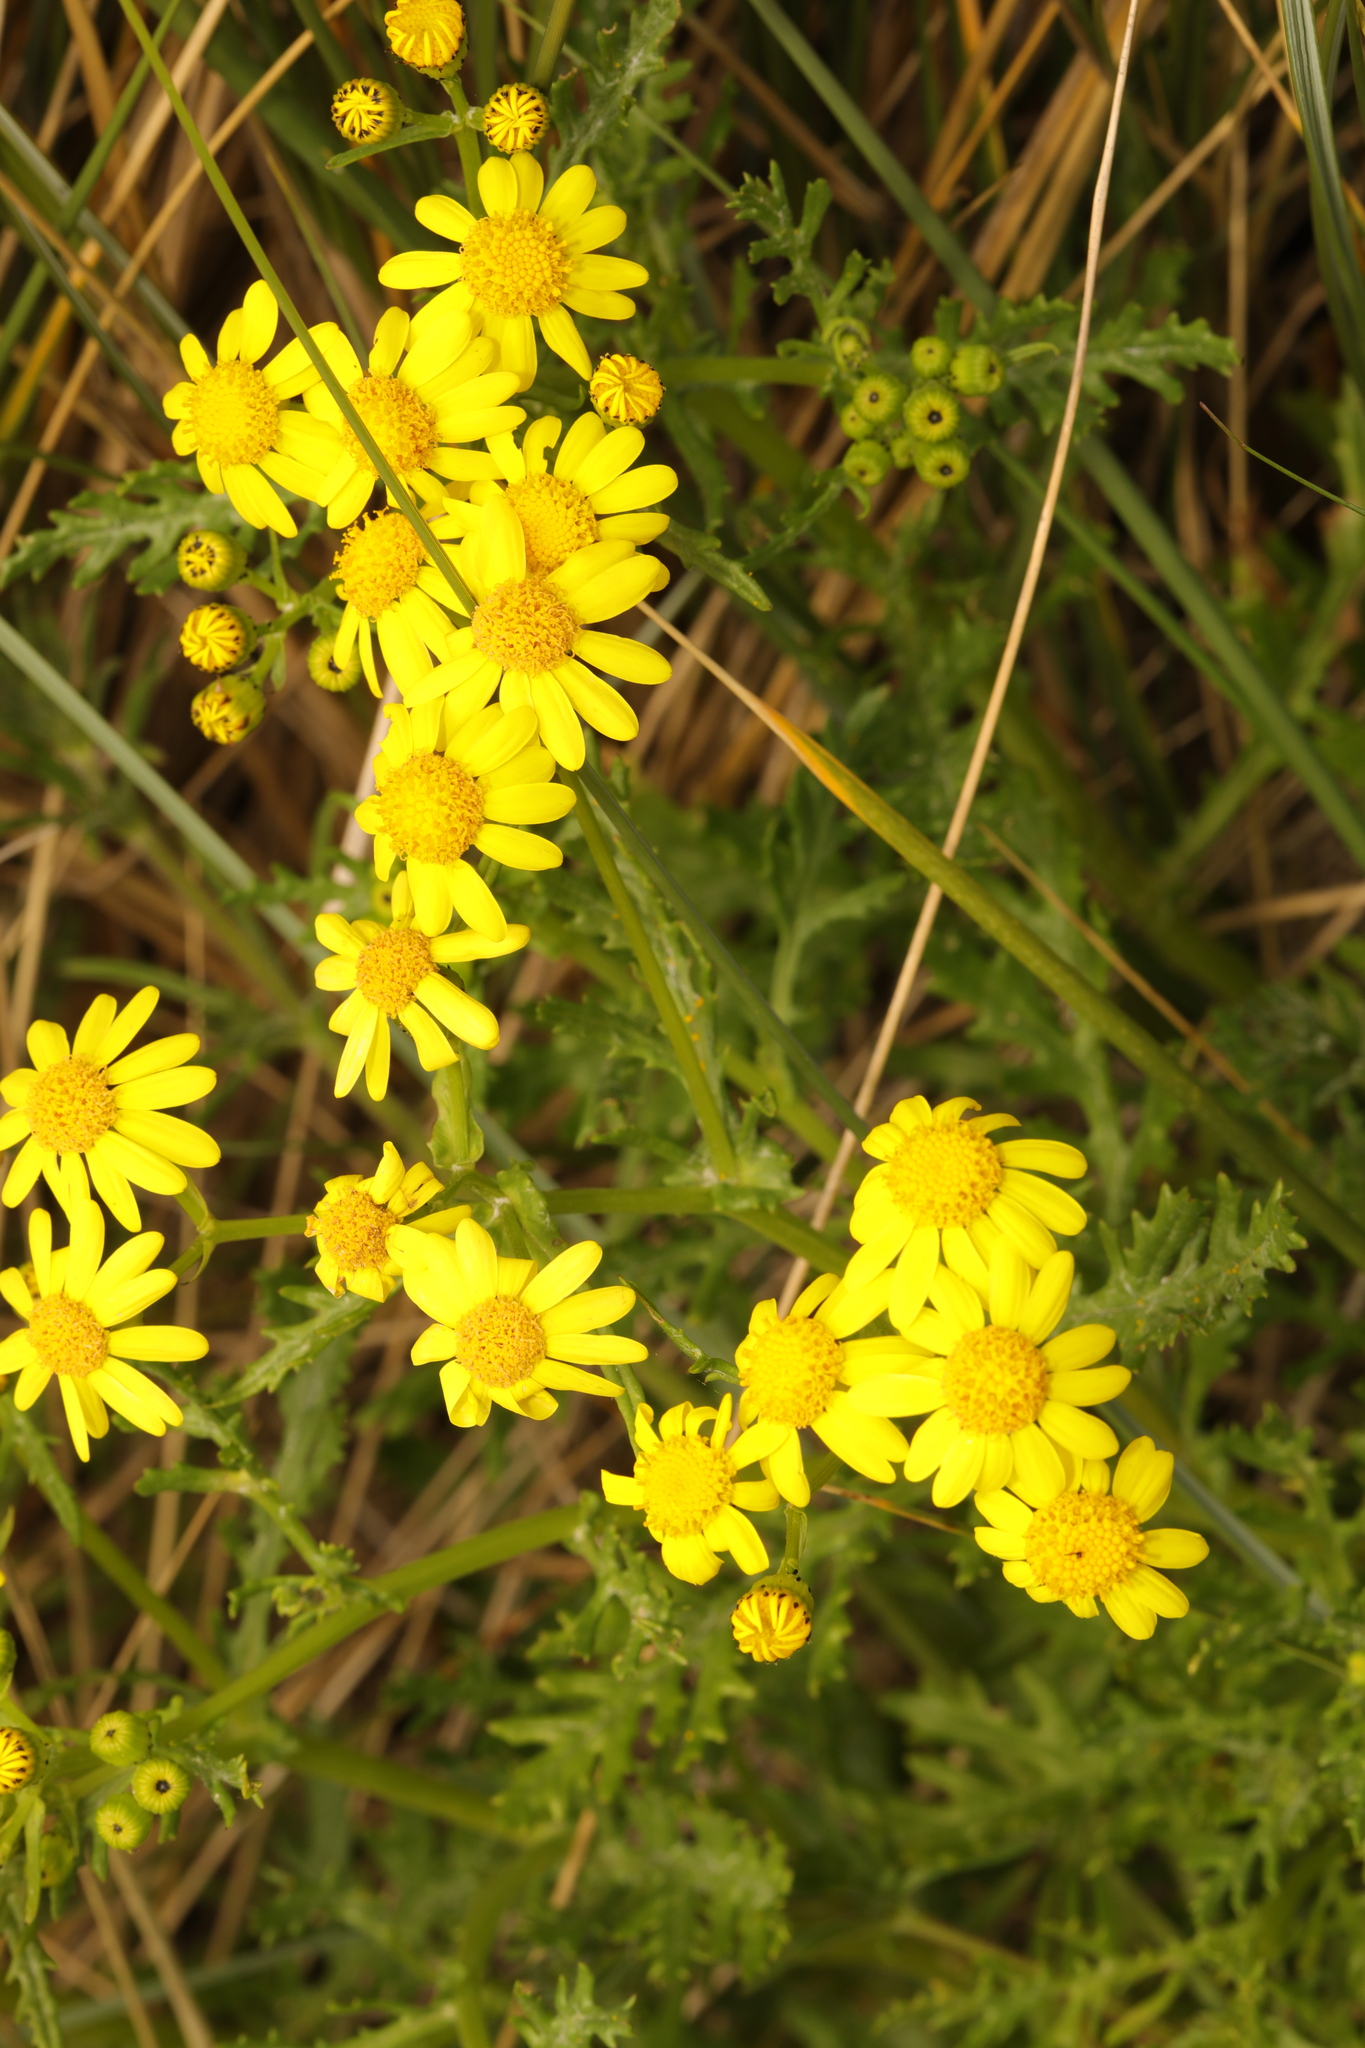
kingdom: Plantae
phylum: Tracheophyta
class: Magnoliopsida
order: Asterales
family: Asteraceae
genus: Senecio
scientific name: Senecio squalidus
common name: Oxford ragwort
